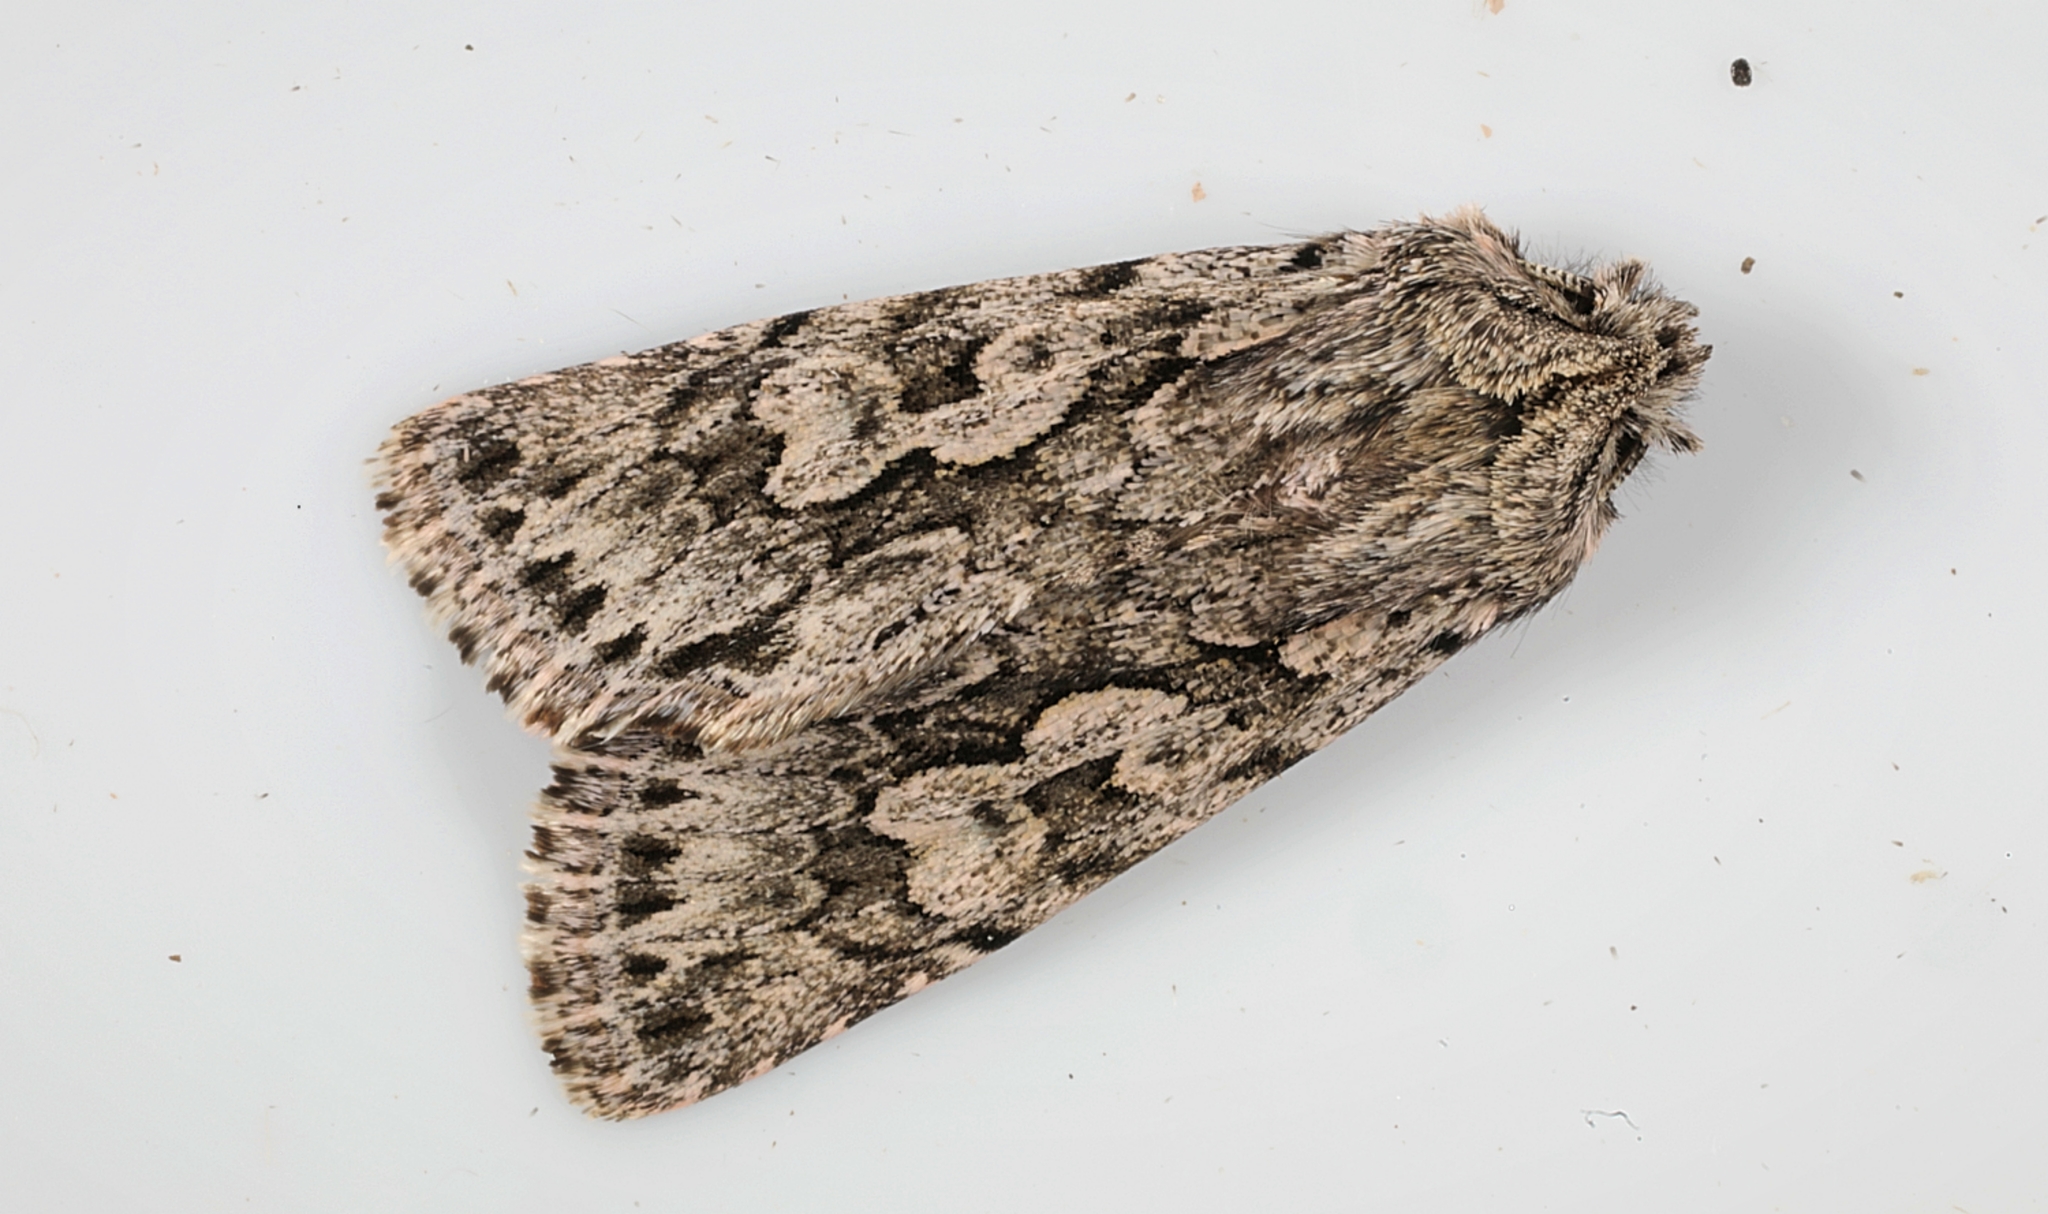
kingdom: Animalia
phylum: Arthropoda
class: Insecta
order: Lepidoptera
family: Noctuidae
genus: Xylocampa
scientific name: Xylocampa areola
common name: Early grey
